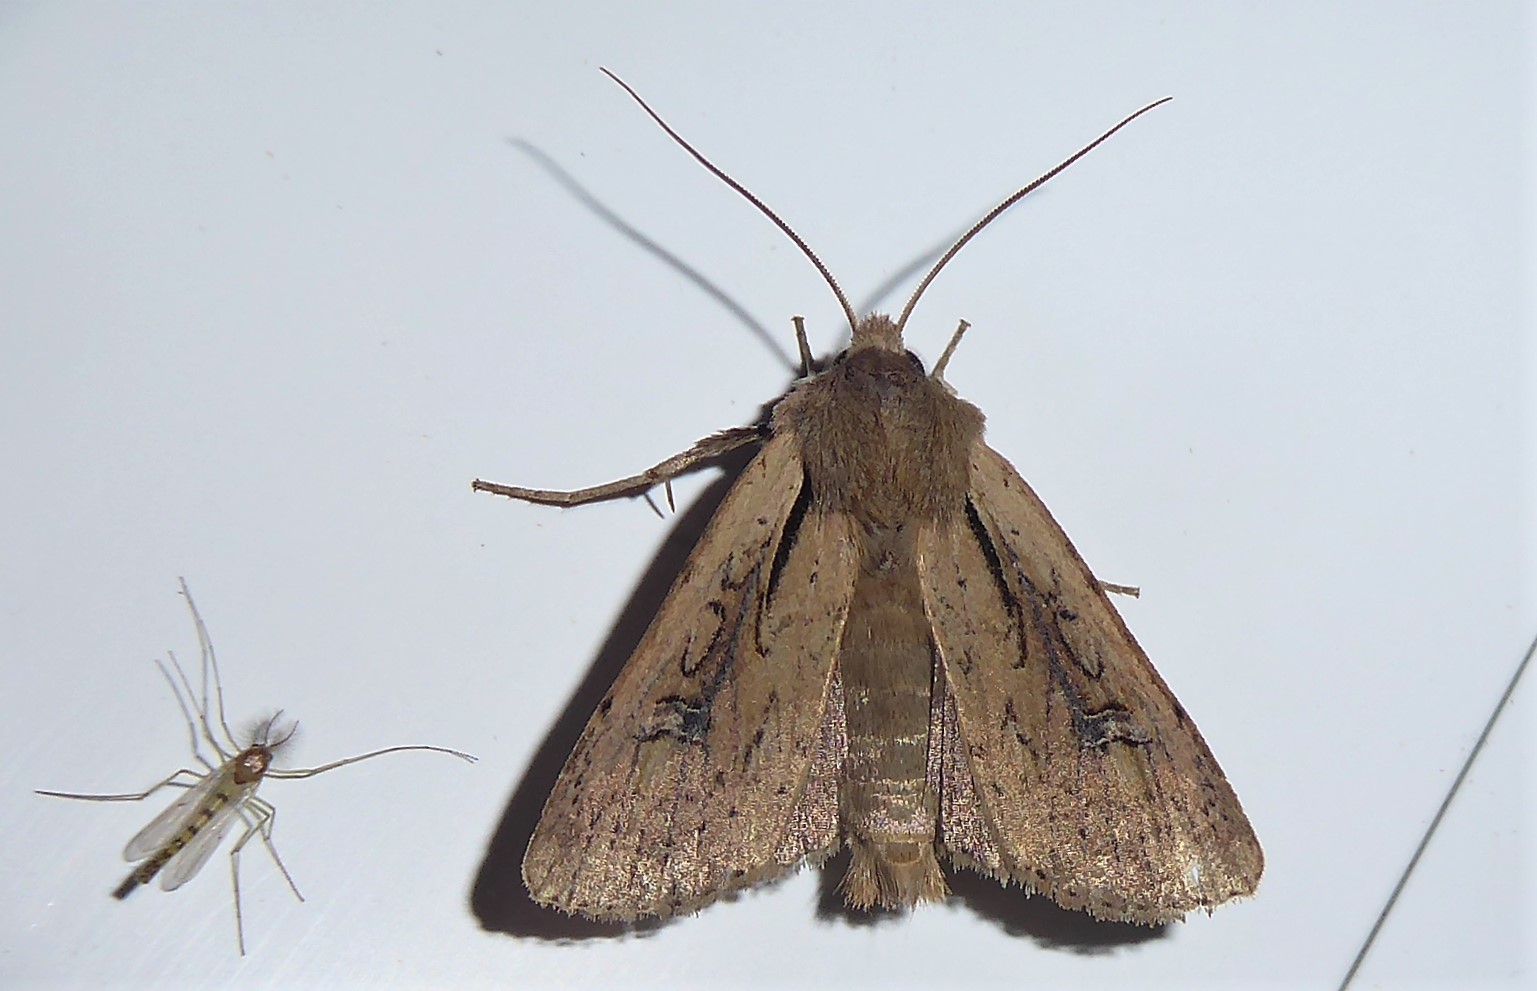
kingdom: Animalia
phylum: Arthropoda
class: Insecta
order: Lepidoptera
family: Noctuidae
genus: Ichneutica
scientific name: Ichneutica atristriga
